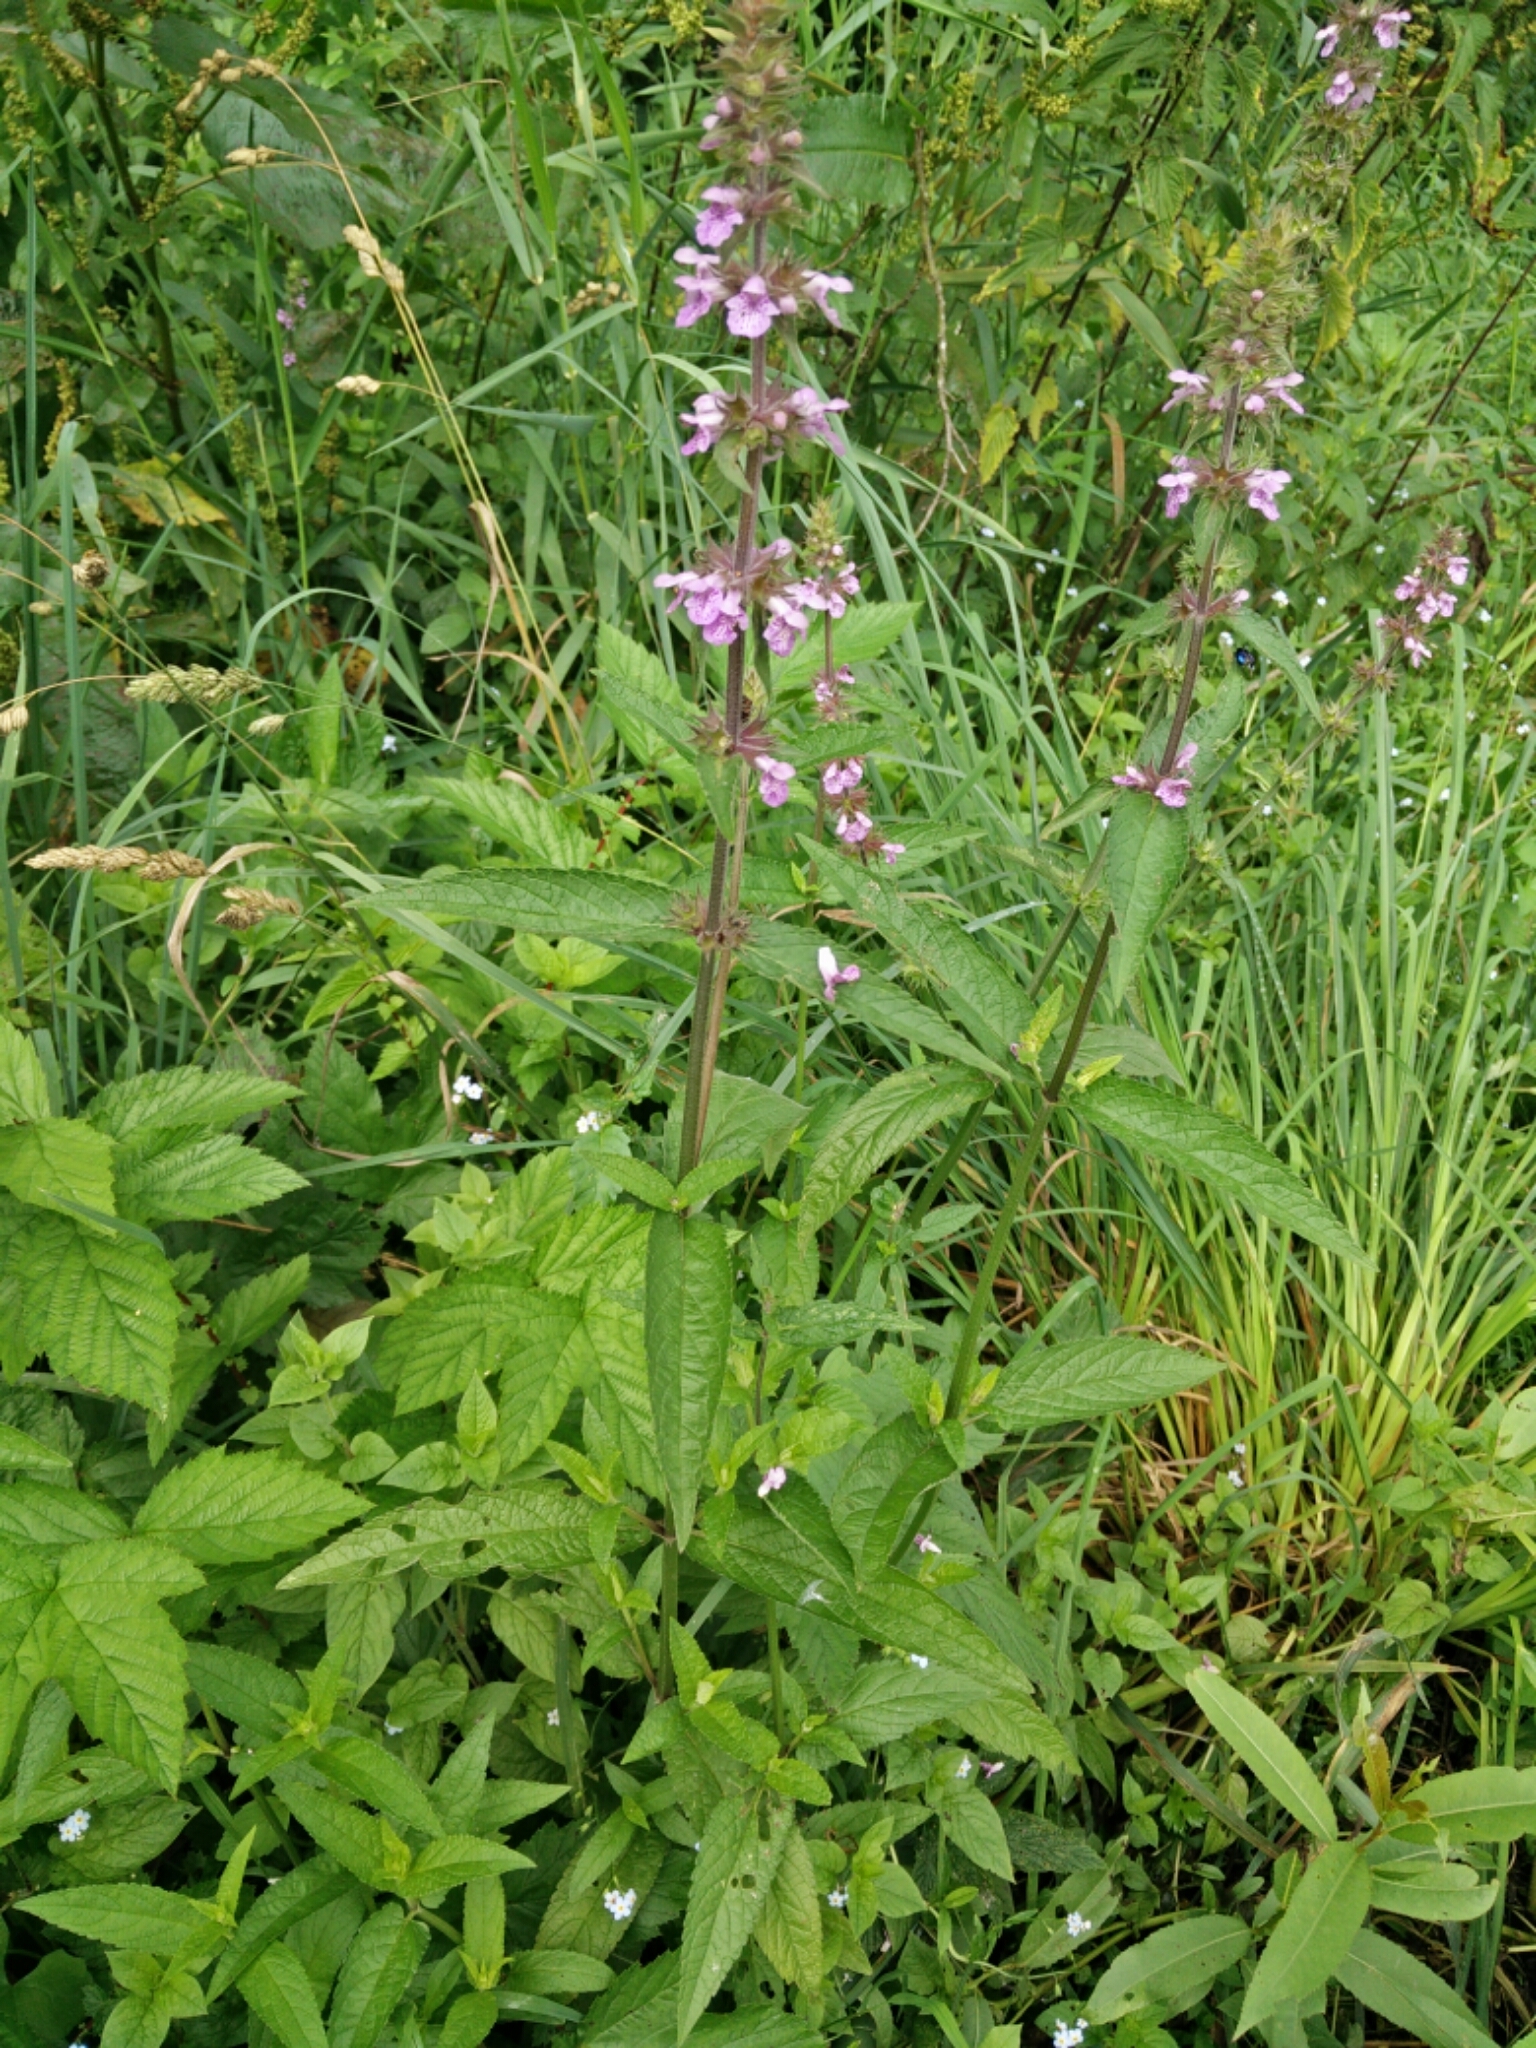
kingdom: Plantae
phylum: Tracheophyta
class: Magnoliopsida
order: Lamiales
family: Lamiaceae
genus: Stachys
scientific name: Stachys palustris
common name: Marsh woundwort
